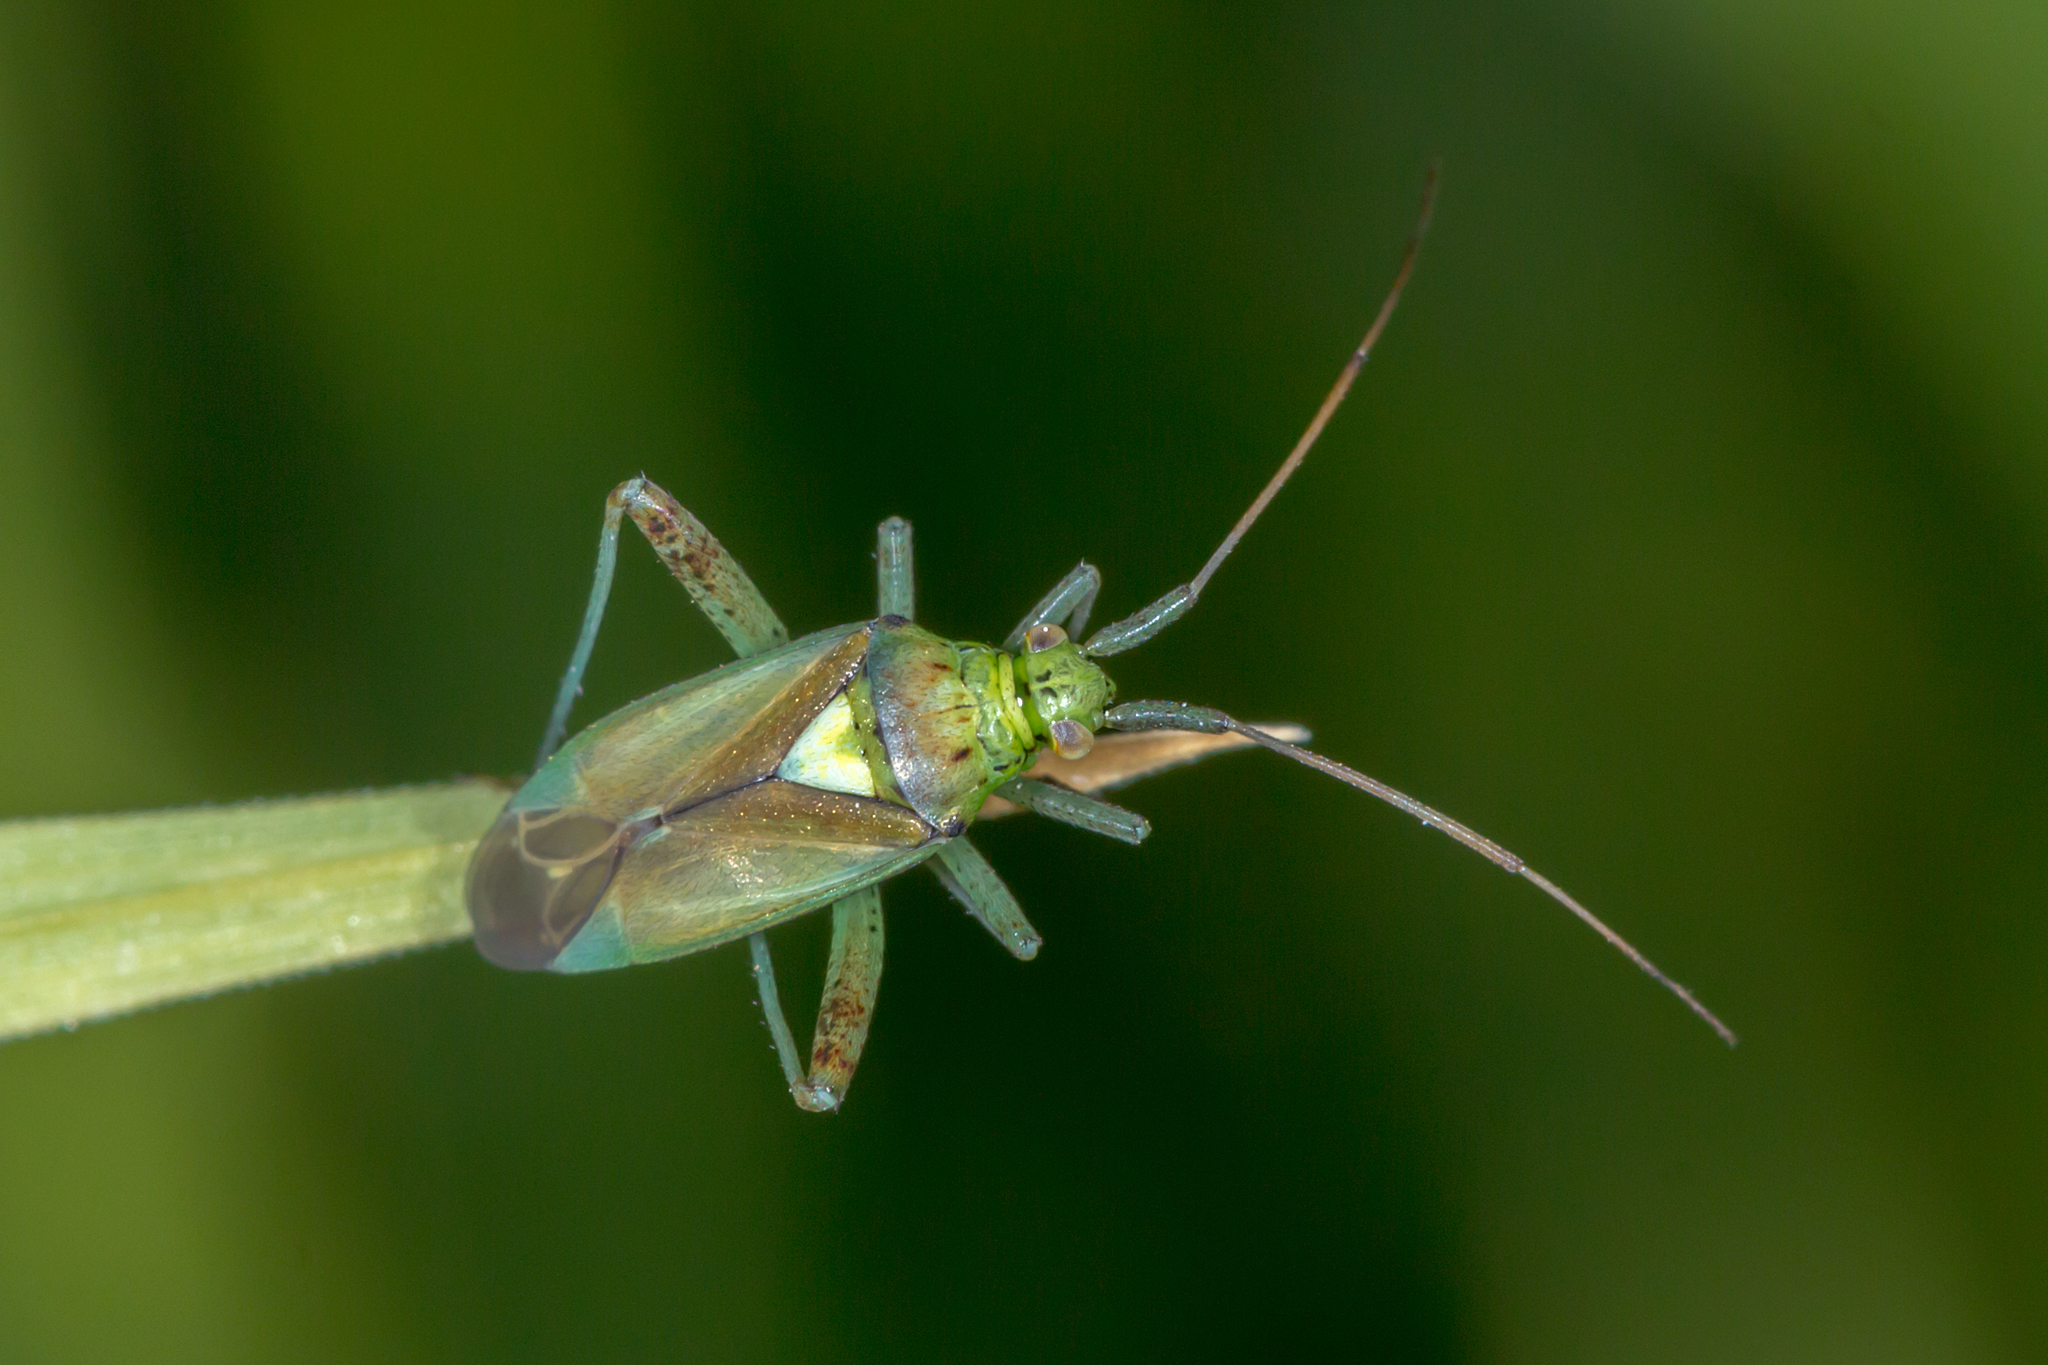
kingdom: Animalia
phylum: Arthropoda
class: Insecta
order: Hemiptera
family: Miridae
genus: Lincolnia
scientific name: Lincolnia lucernina
